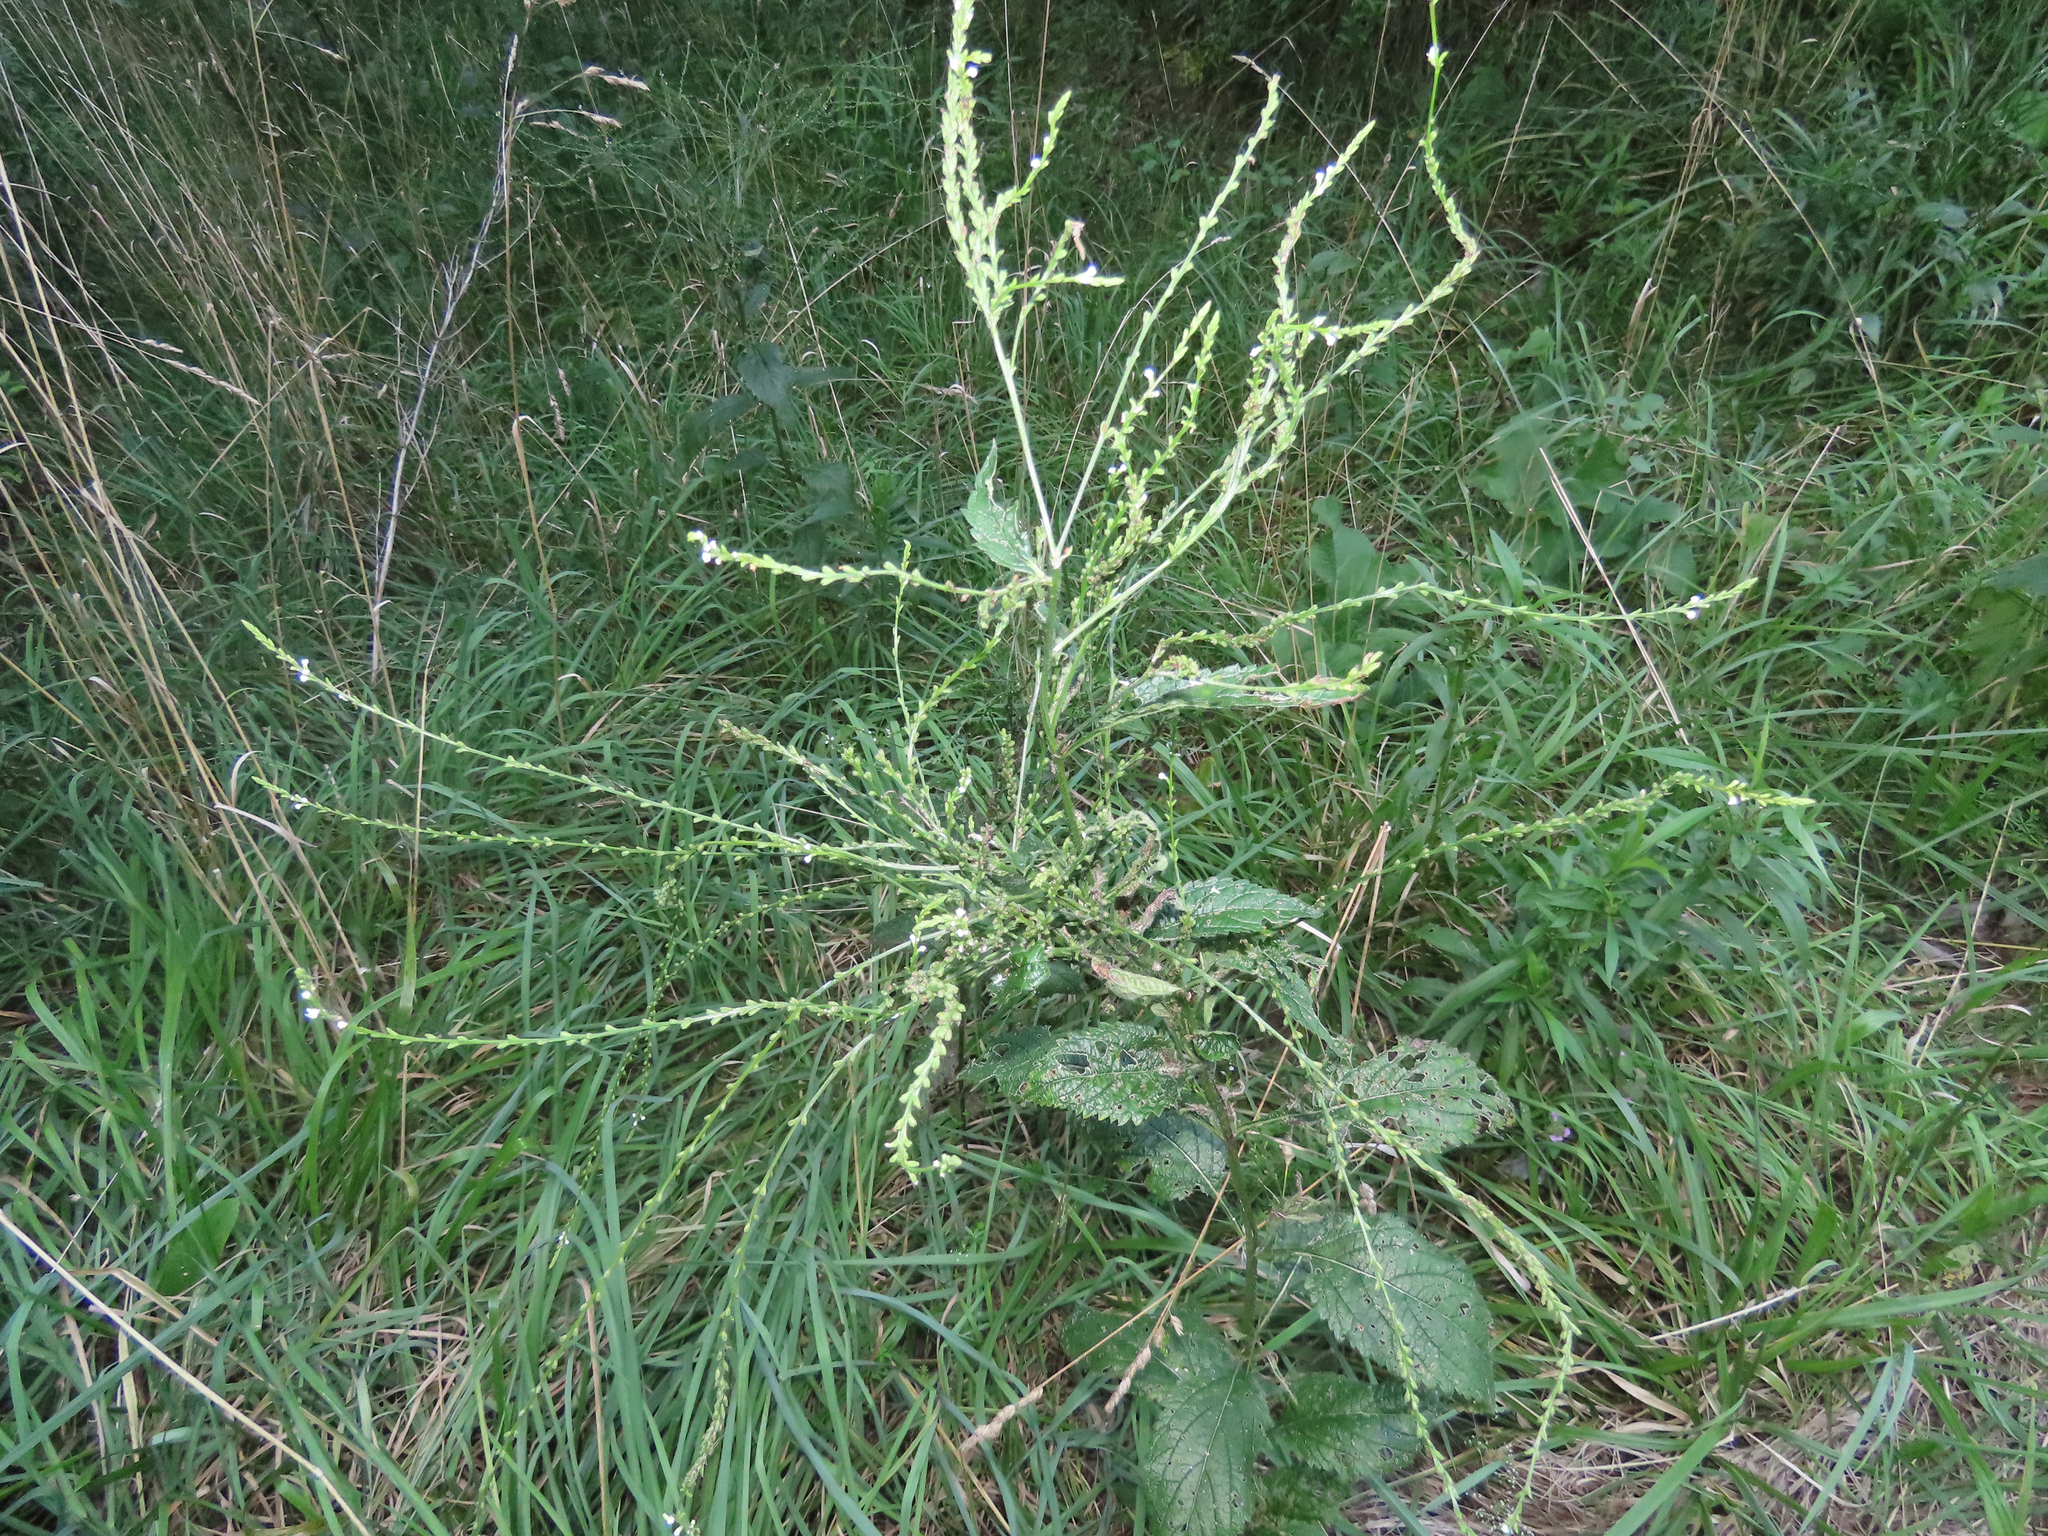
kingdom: Plantae
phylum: Tracheophyta
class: Magnoliopsida
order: Lamiales
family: Verbenaceae
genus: Verbena
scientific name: Verbena urticifolia
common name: Nettle-leaved vervain
